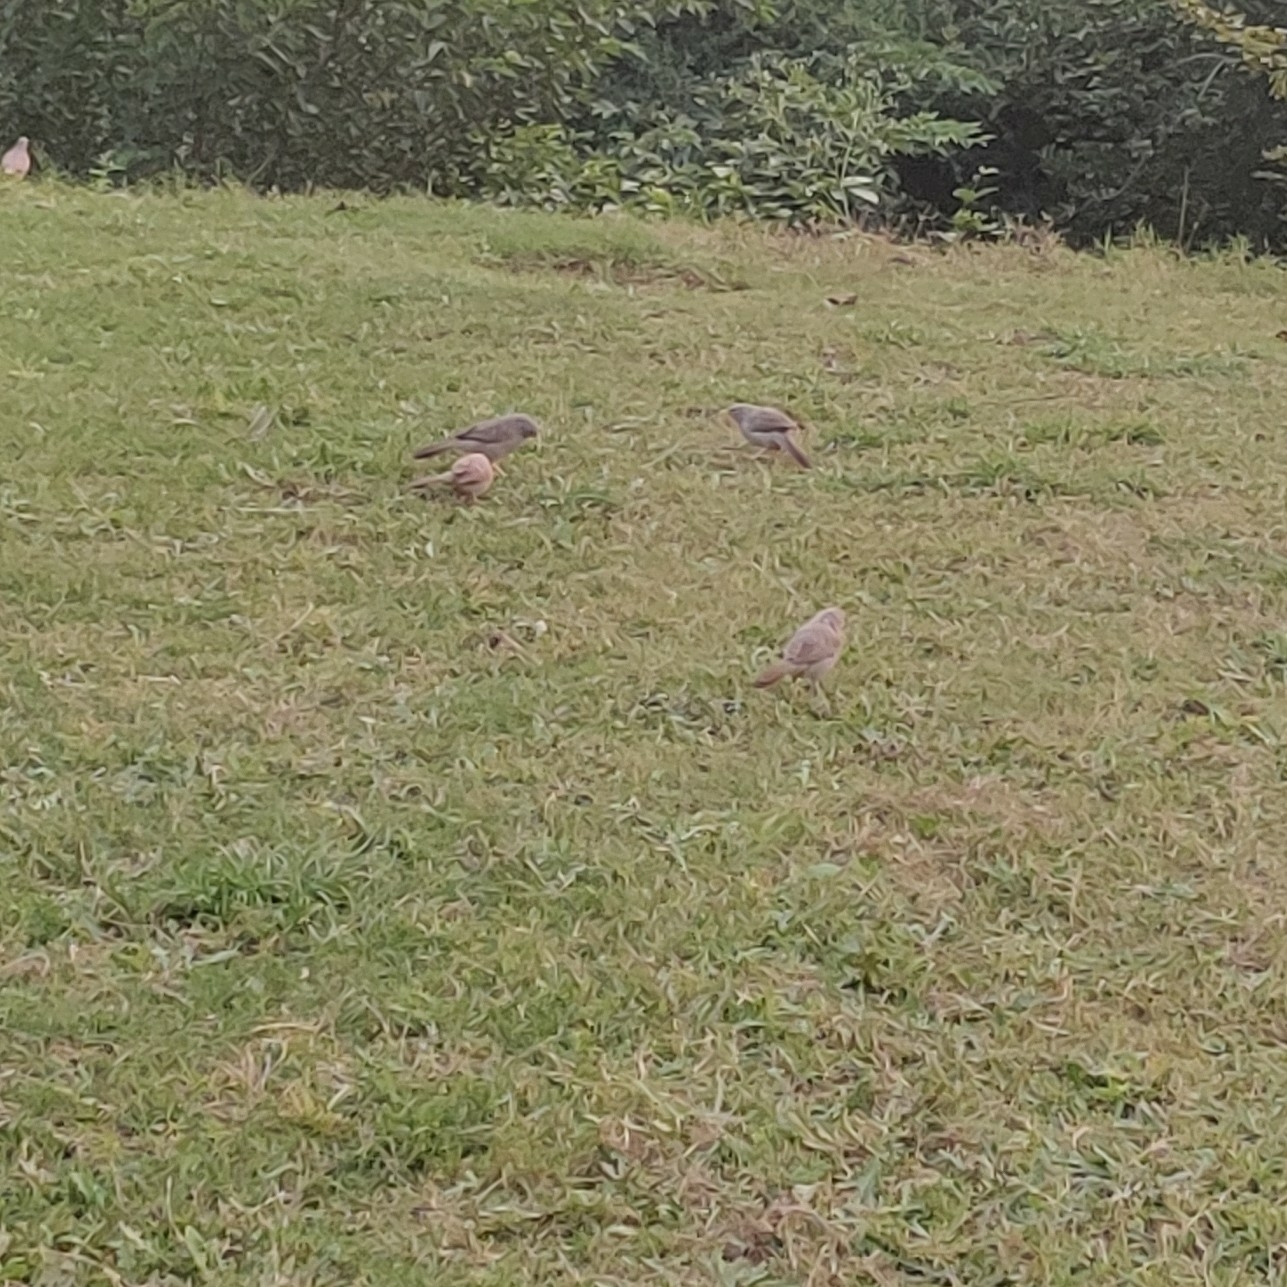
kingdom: Animalia
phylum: Chordata
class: Aves
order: Passeriformes
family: Leiothrichidae
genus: Turdoides
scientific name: Turdoides striata
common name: Jungle babbler
